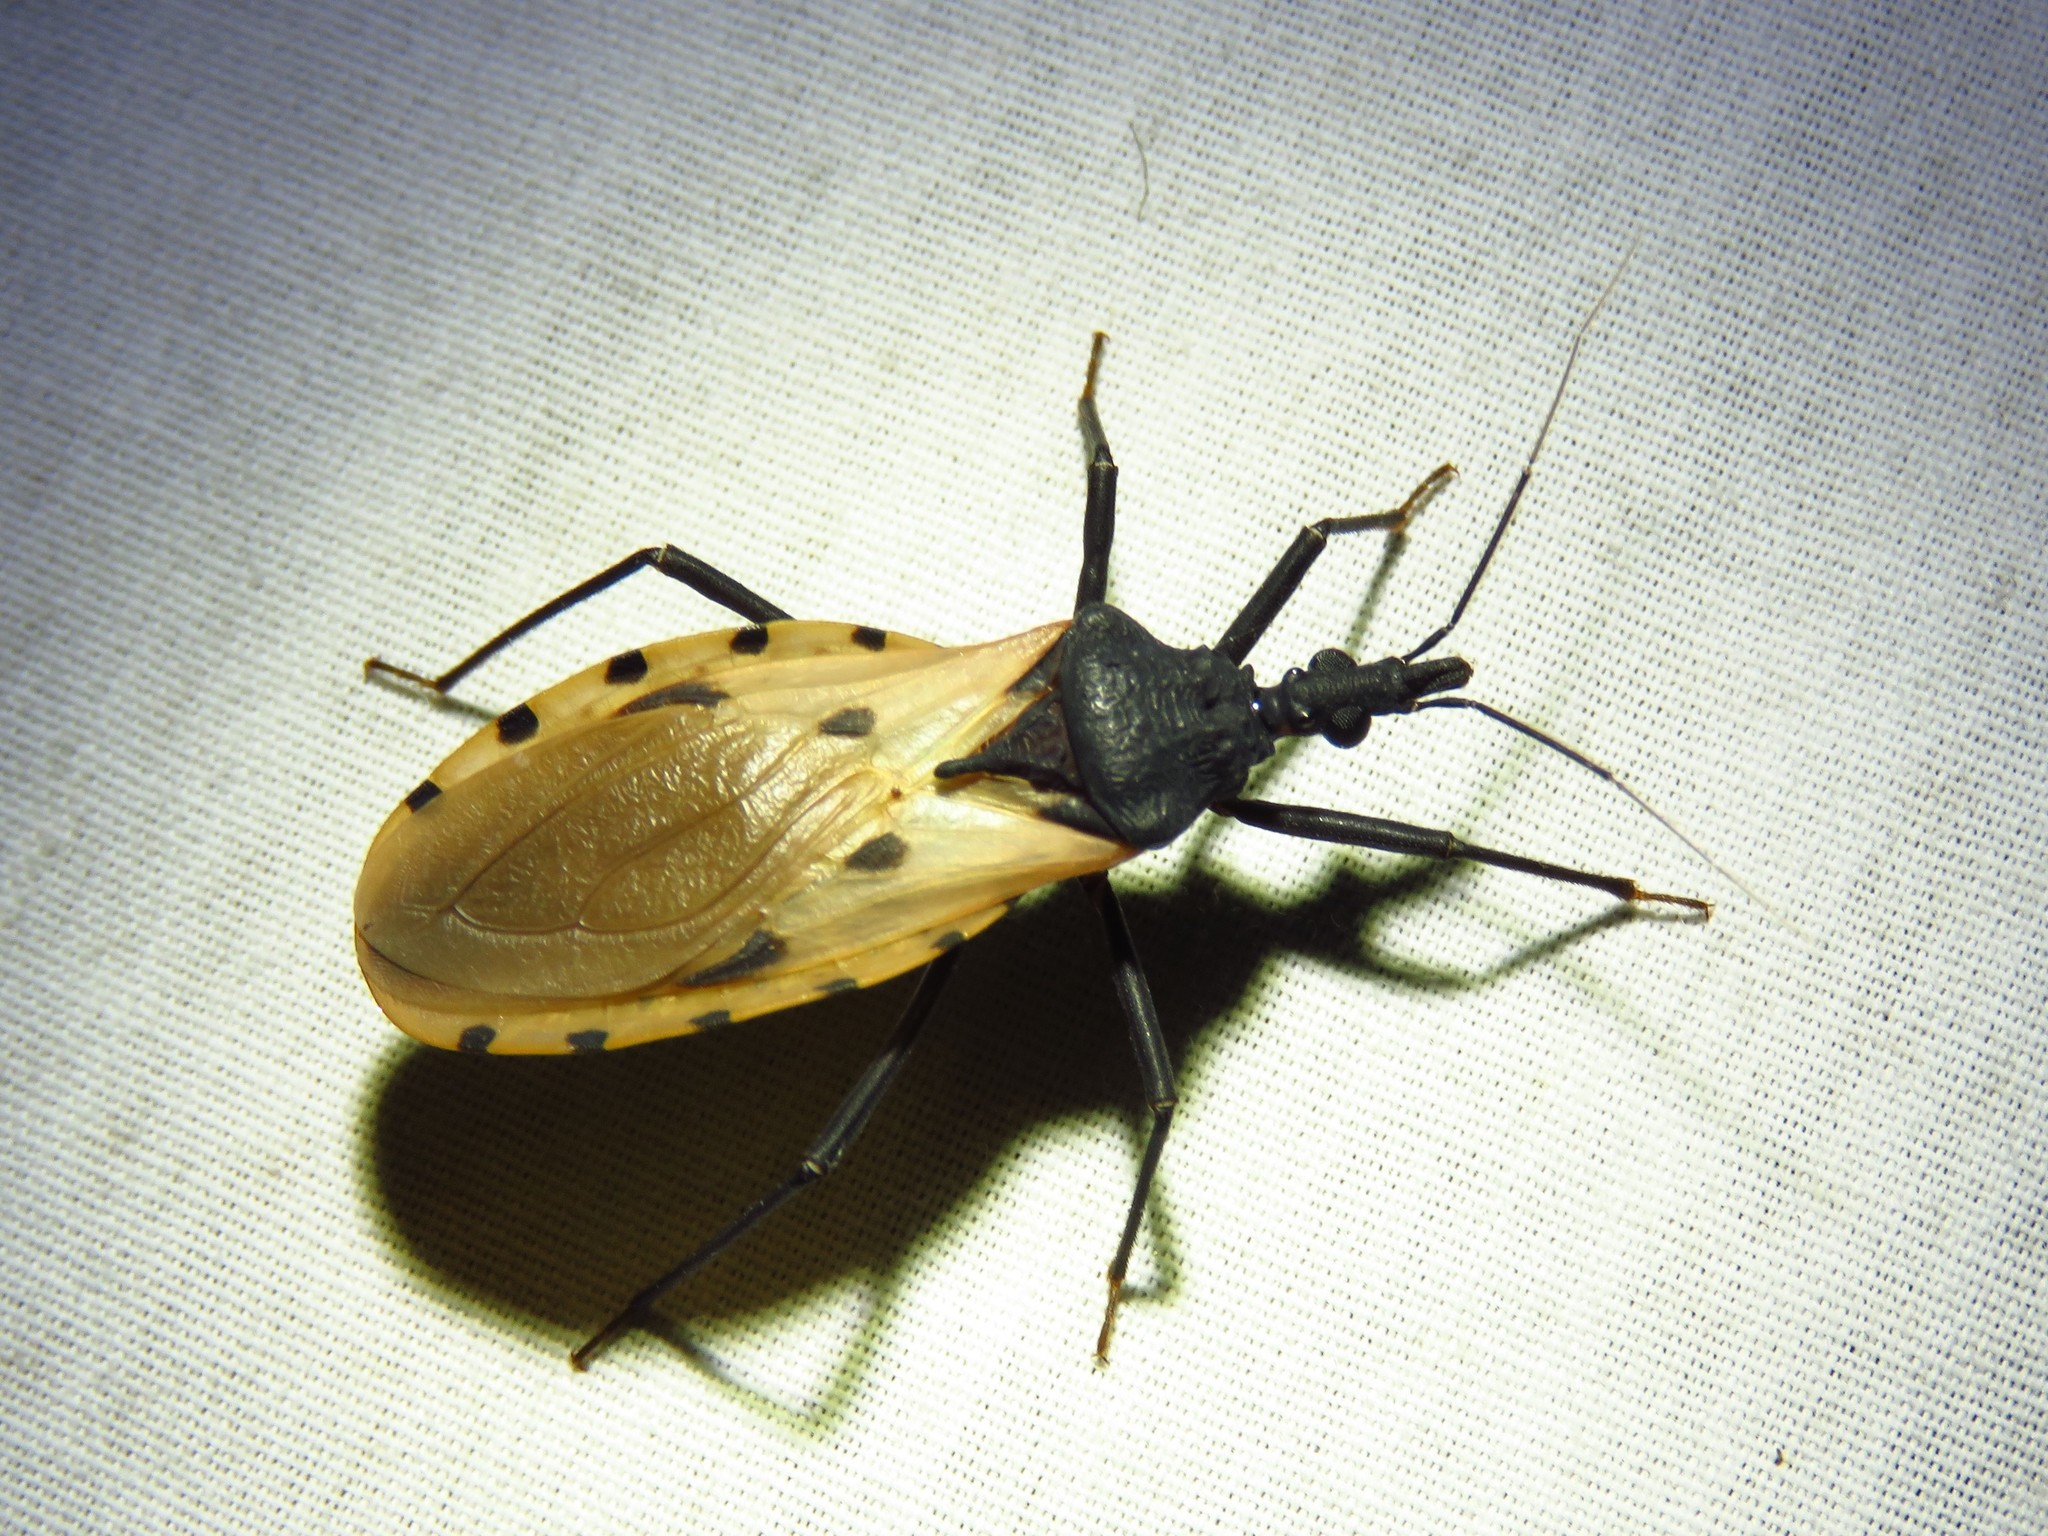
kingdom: Animalia
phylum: Arthropoda
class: Insecta
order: Hemiptera
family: Reduviidae
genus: Meccus
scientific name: Meccus dimidiatus
